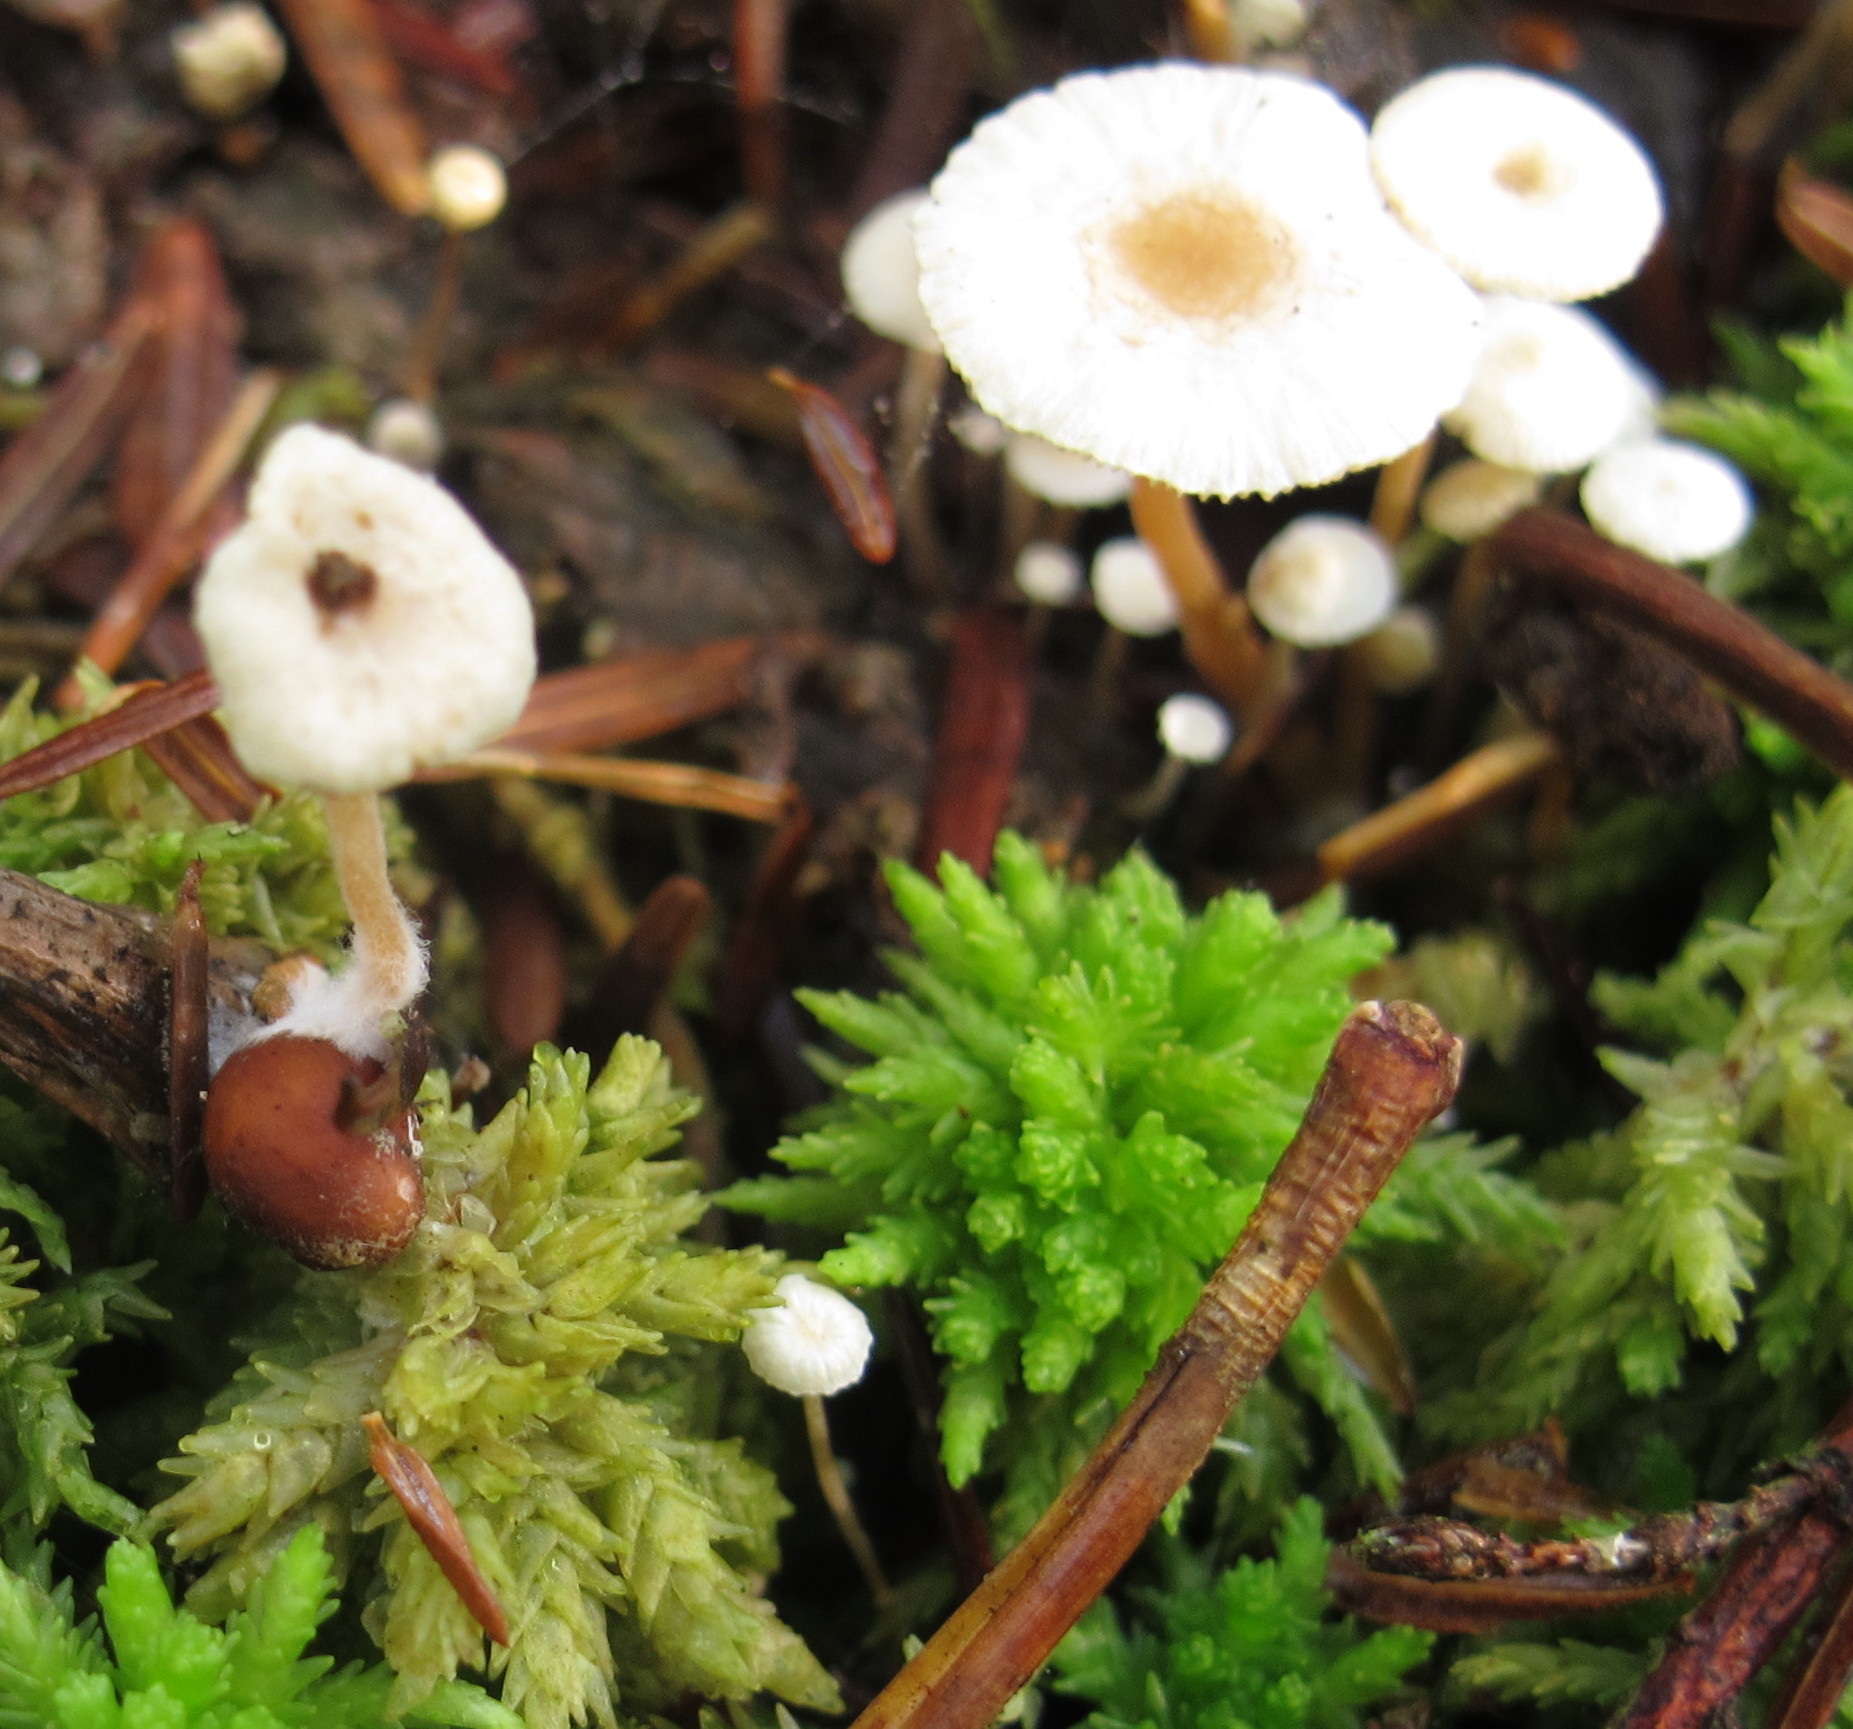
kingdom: Fungi
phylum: Basidiomycota
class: Agaricomycetes
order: Agaricales
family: Tricholomataceae
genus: Collybia
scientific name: Collybia tuberosa
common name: Lentil shanklet
